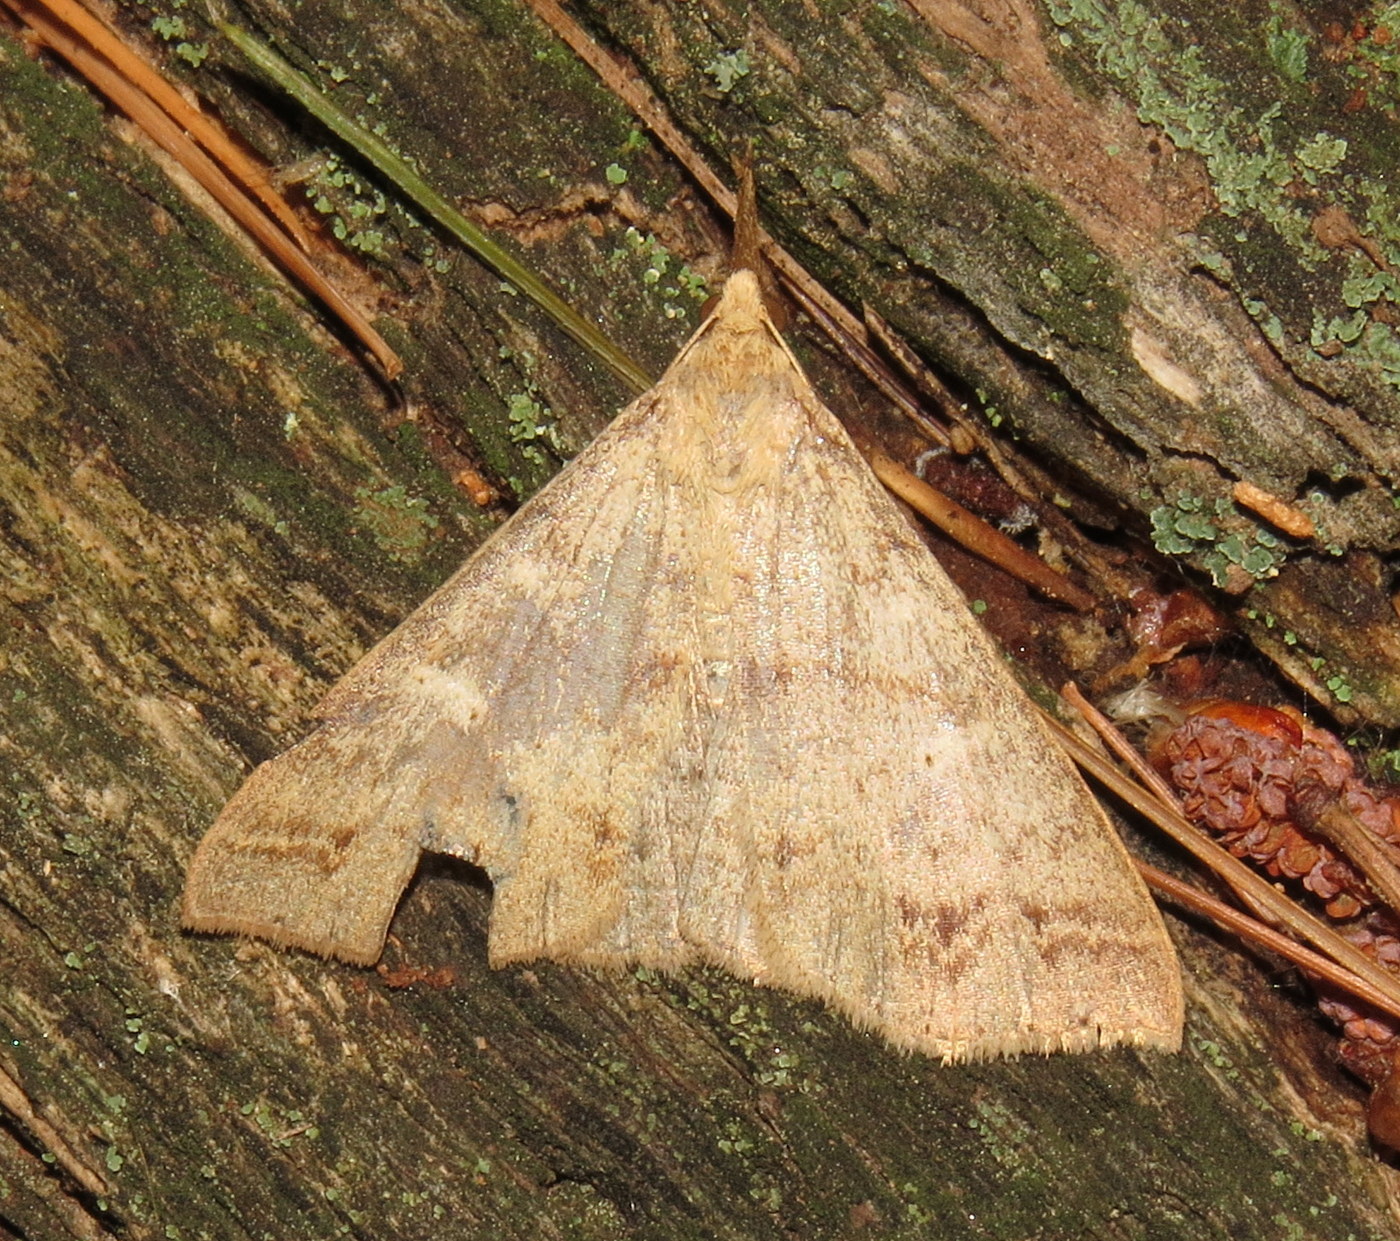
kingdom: Animalia
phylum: Arthropoda
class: Insecta
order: Lepidoptera
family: Erebidae
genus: Renia
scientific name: Renia discoloralis
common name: Discolored renia moth
